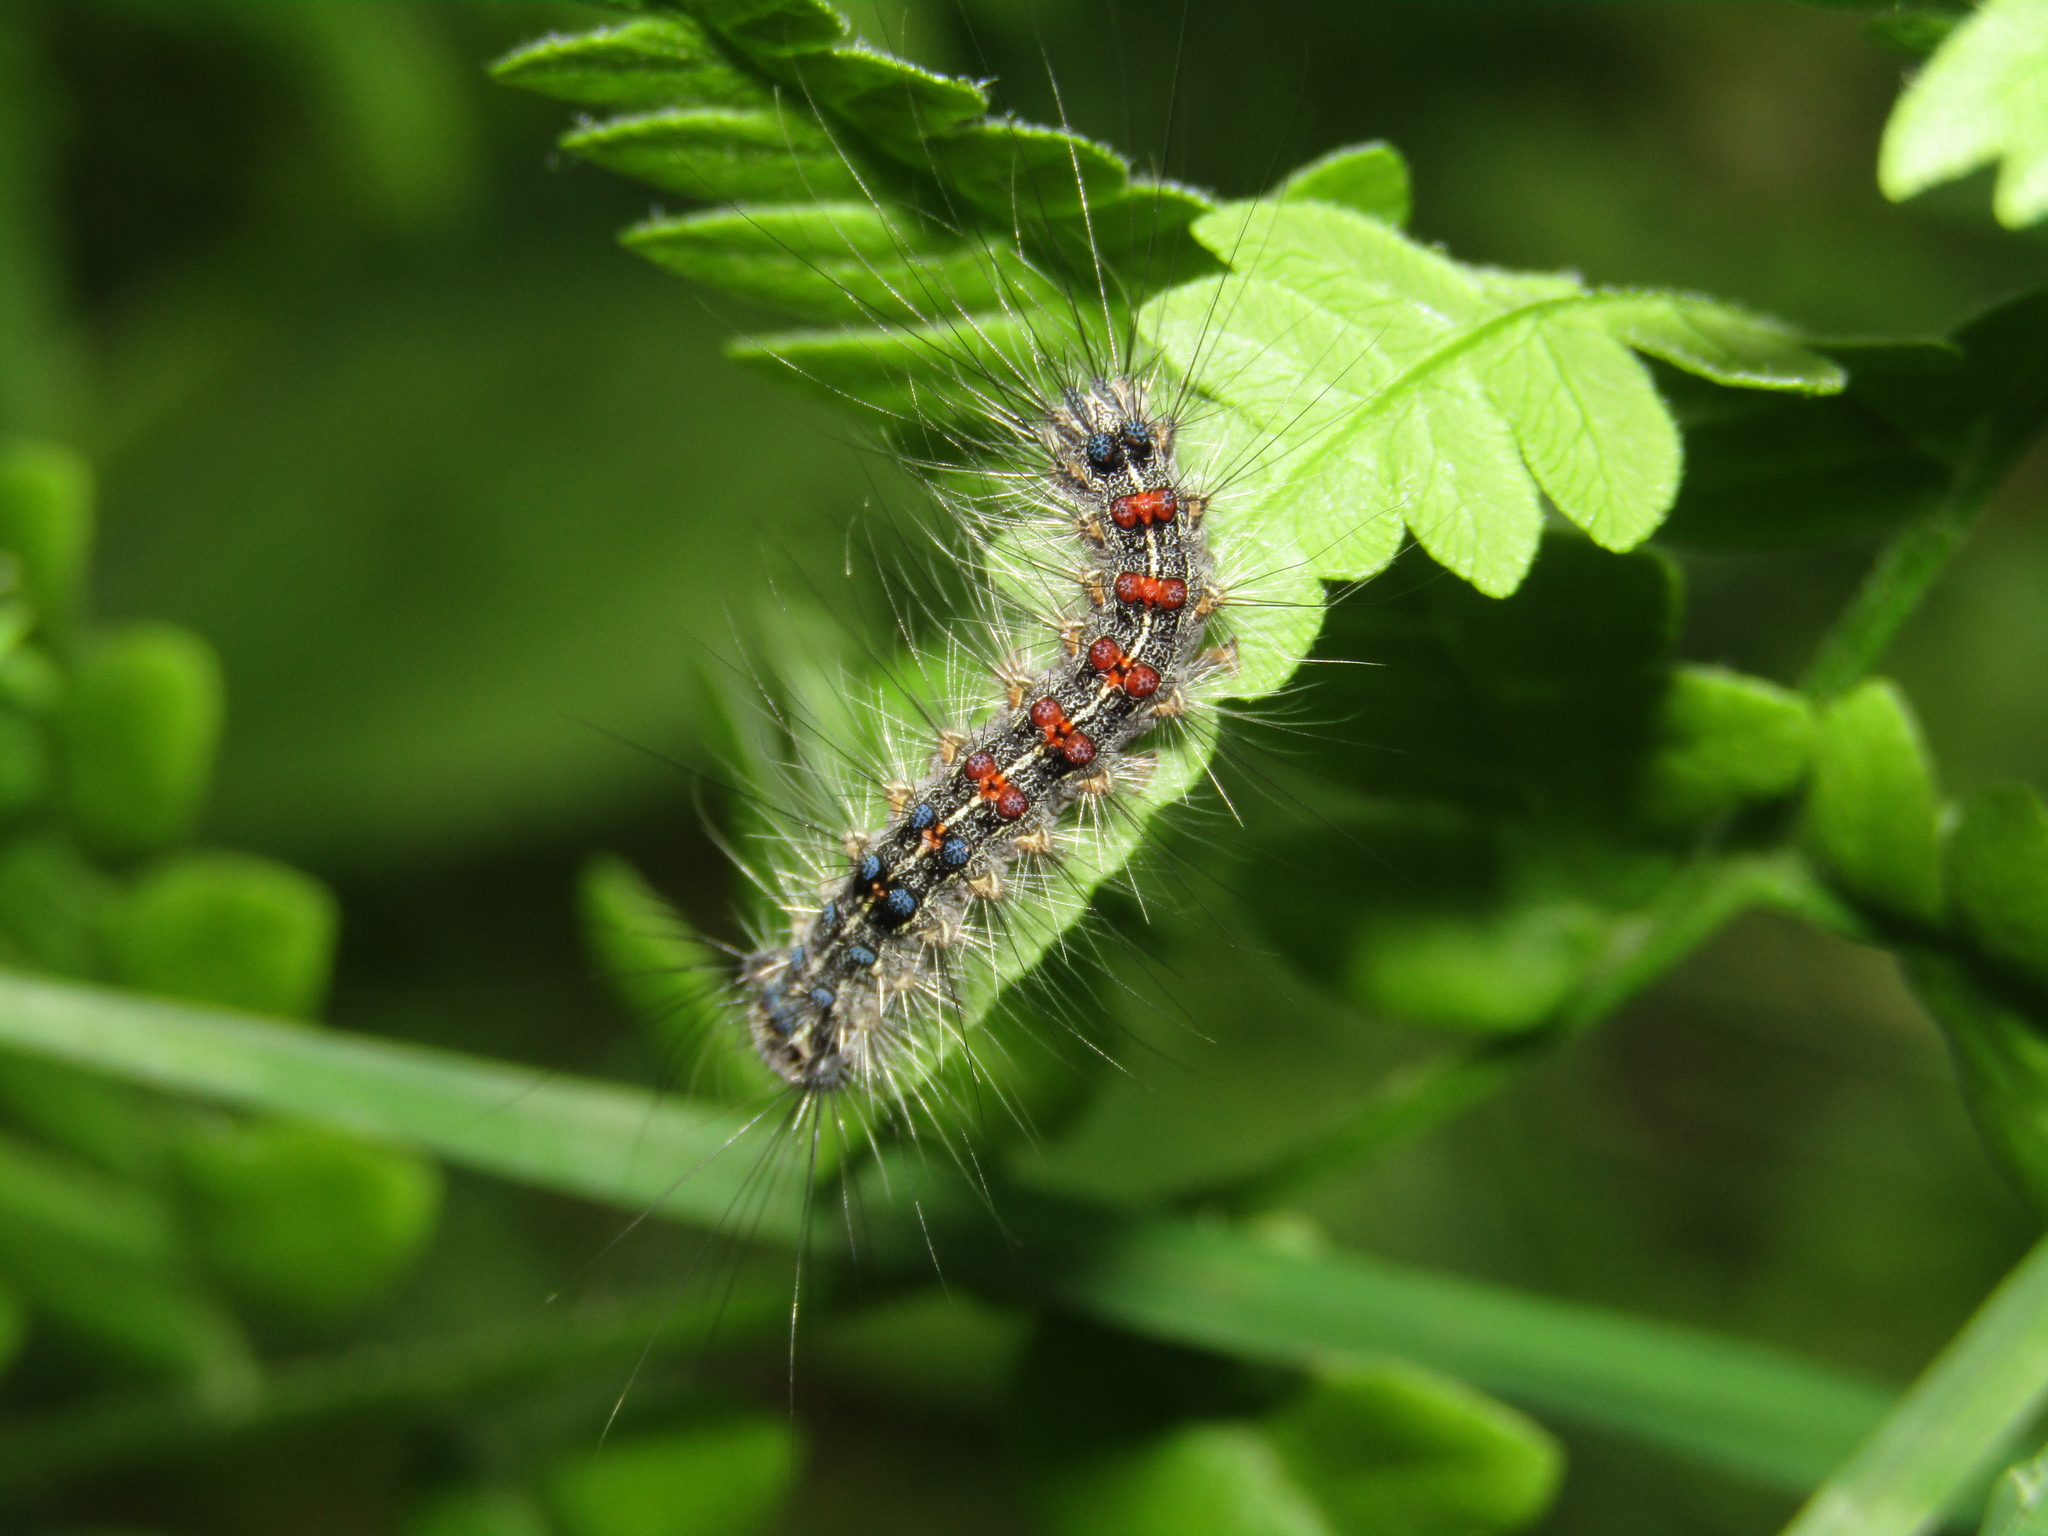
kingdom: Animalia
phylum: Arthropoda
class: Insecta
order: Lepidoptera
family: Erebidae
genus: Lymantria
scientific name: Lymantria dispar
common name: Gypsy moth
